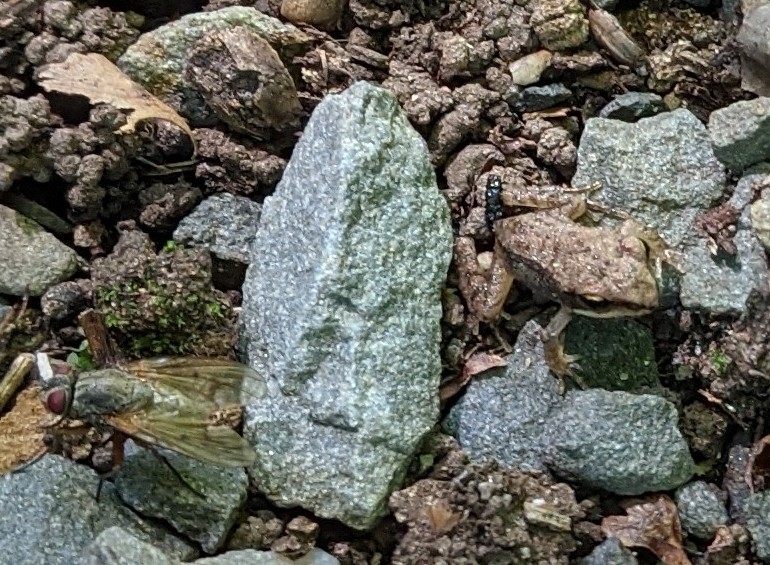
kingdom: Animalia
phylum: Chordata
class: Amphibia
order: Anura
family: Ranidae
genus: Lithobates
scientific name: Lithobates sylvaticus
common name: Wood frog
